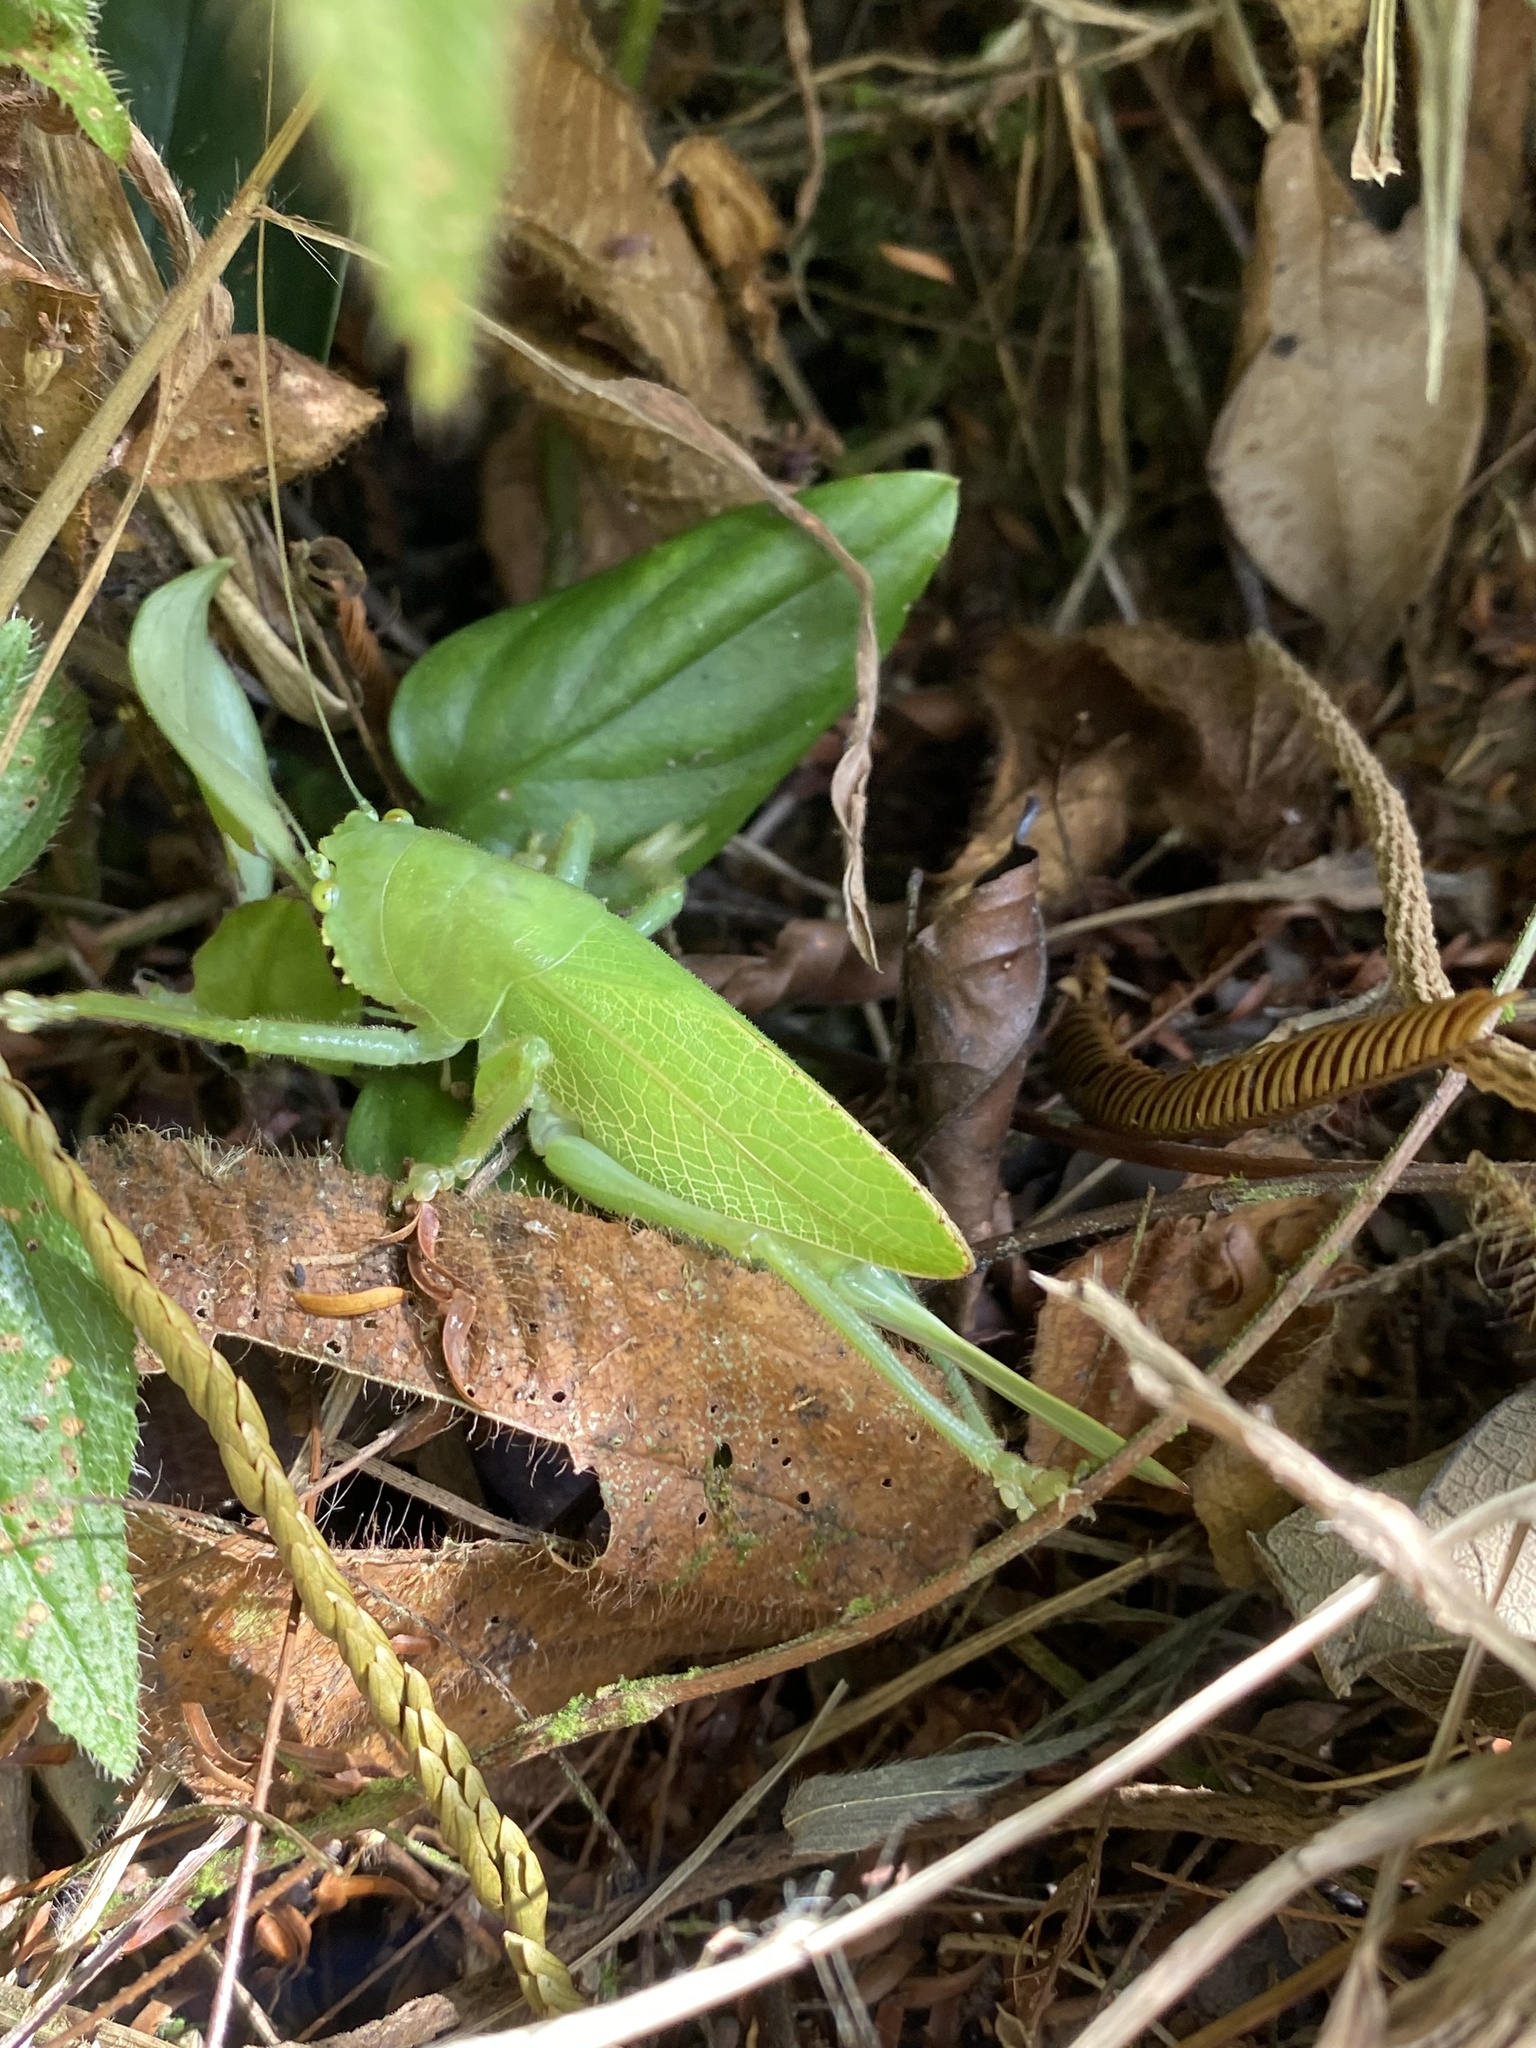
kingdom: Animalia
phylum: Arthropoda
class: Insecta
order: Orthoptera
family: Tettigoniidae
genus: Lirometopum
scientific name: Lirometopum coronatum
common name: Pitbull katydid
